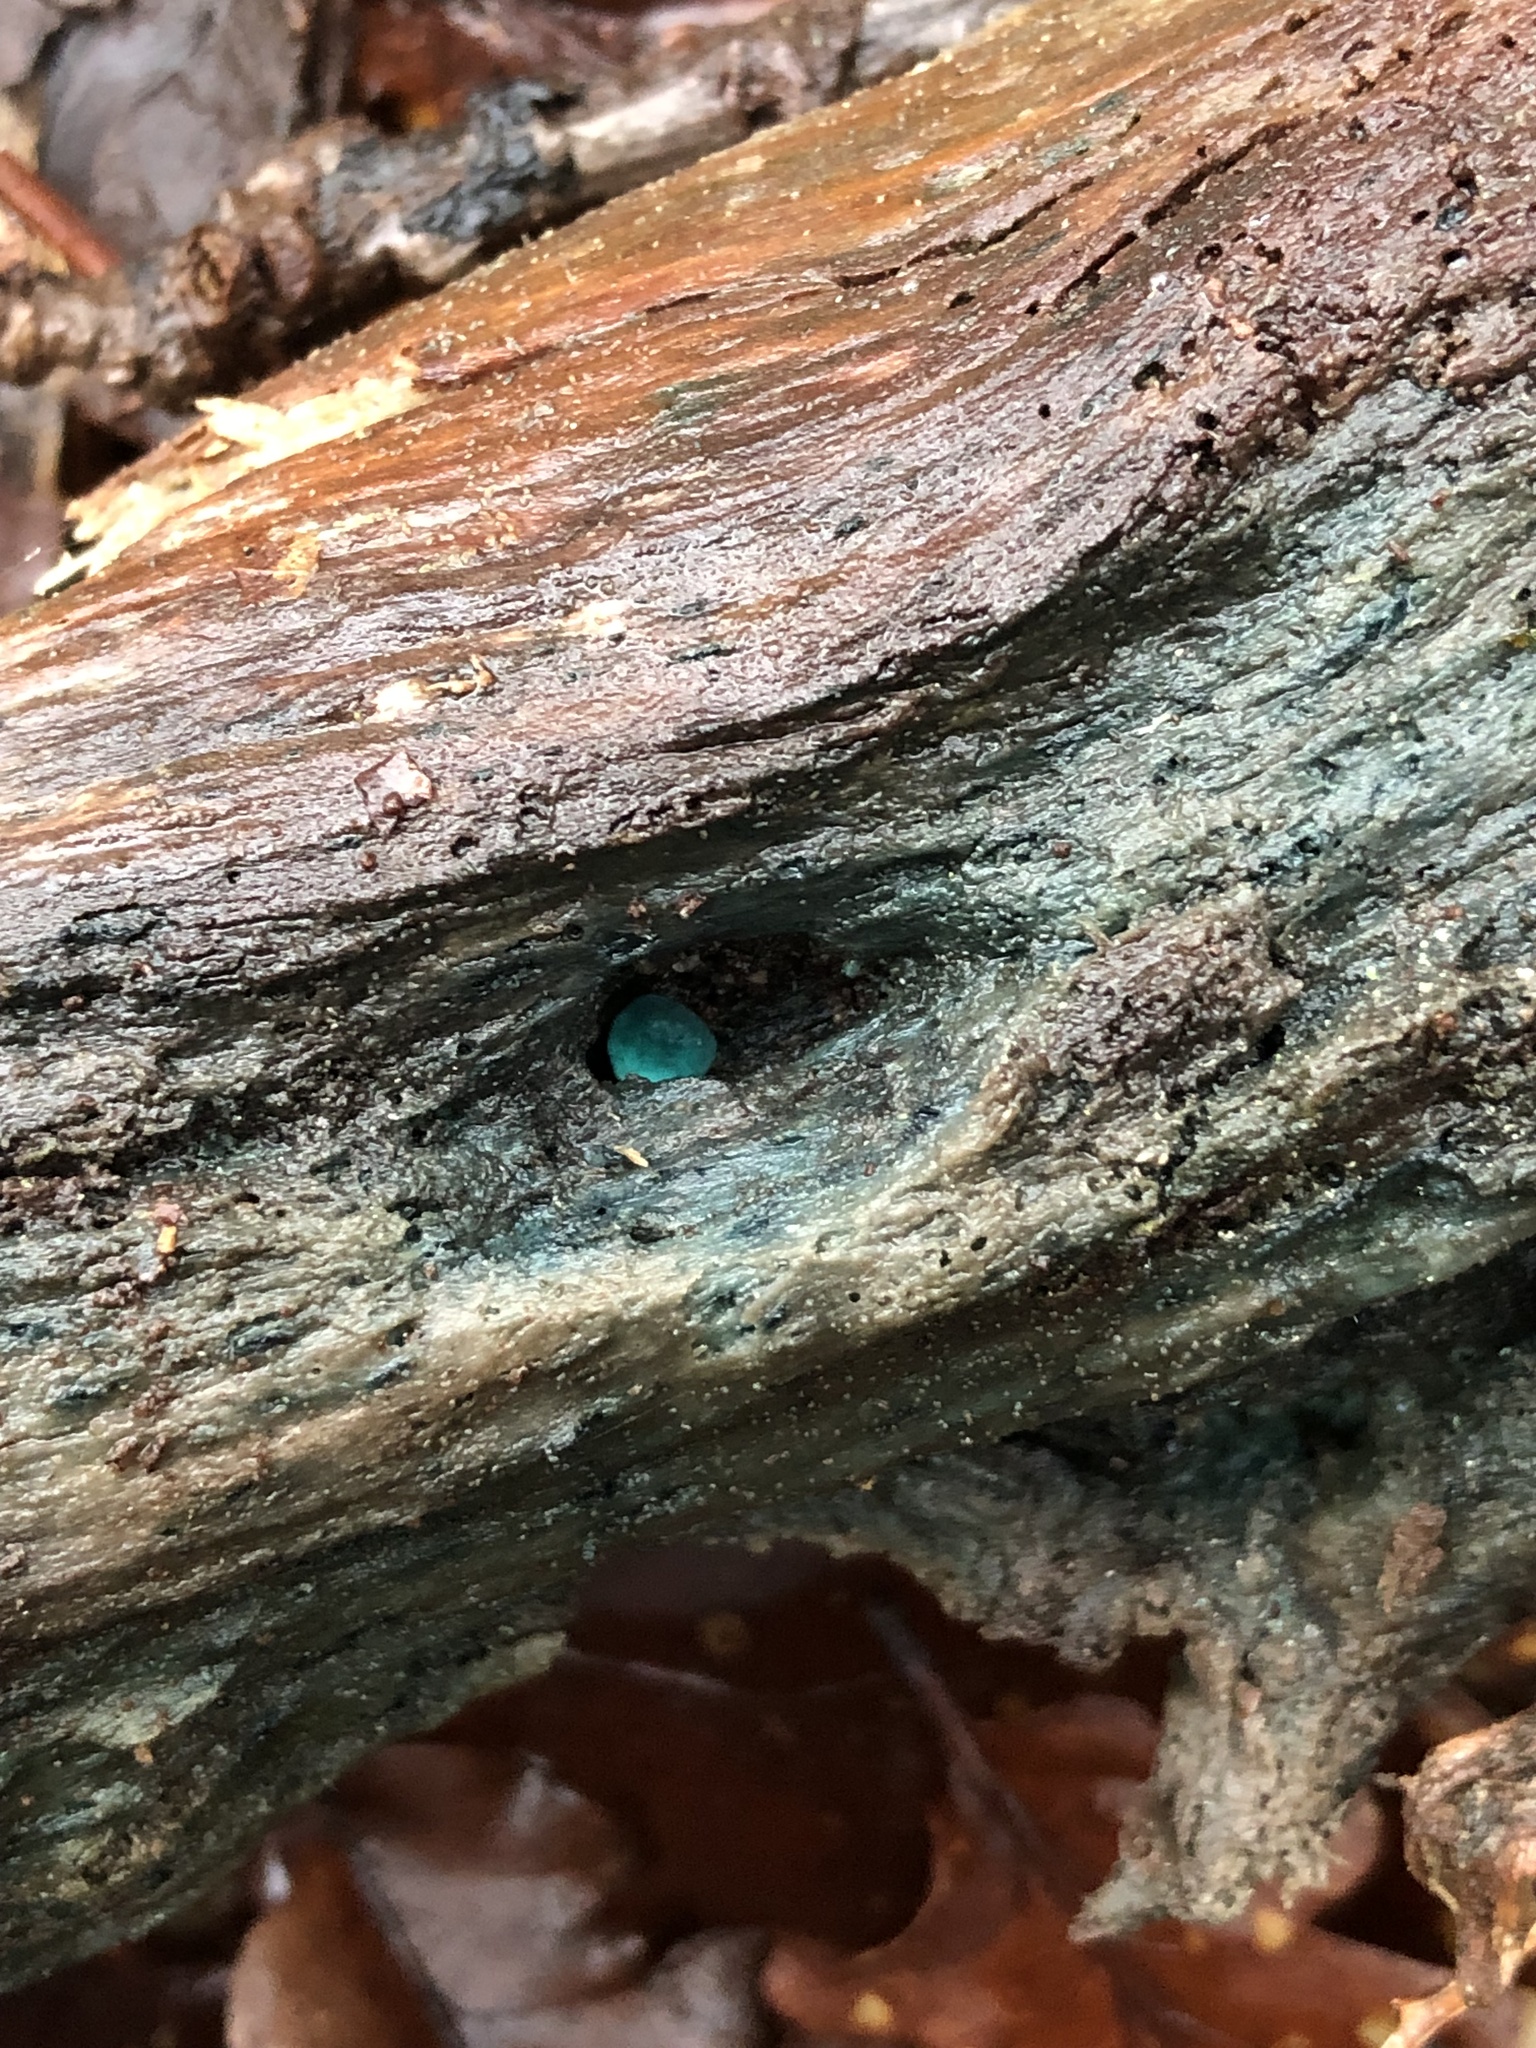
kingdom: Fungi
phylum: Ascomycota
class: Leotiomycetes
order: Helotiales
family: Chlorociboriaceae
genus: Chlorociboria
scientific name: Chlorociboria aeruginascens
